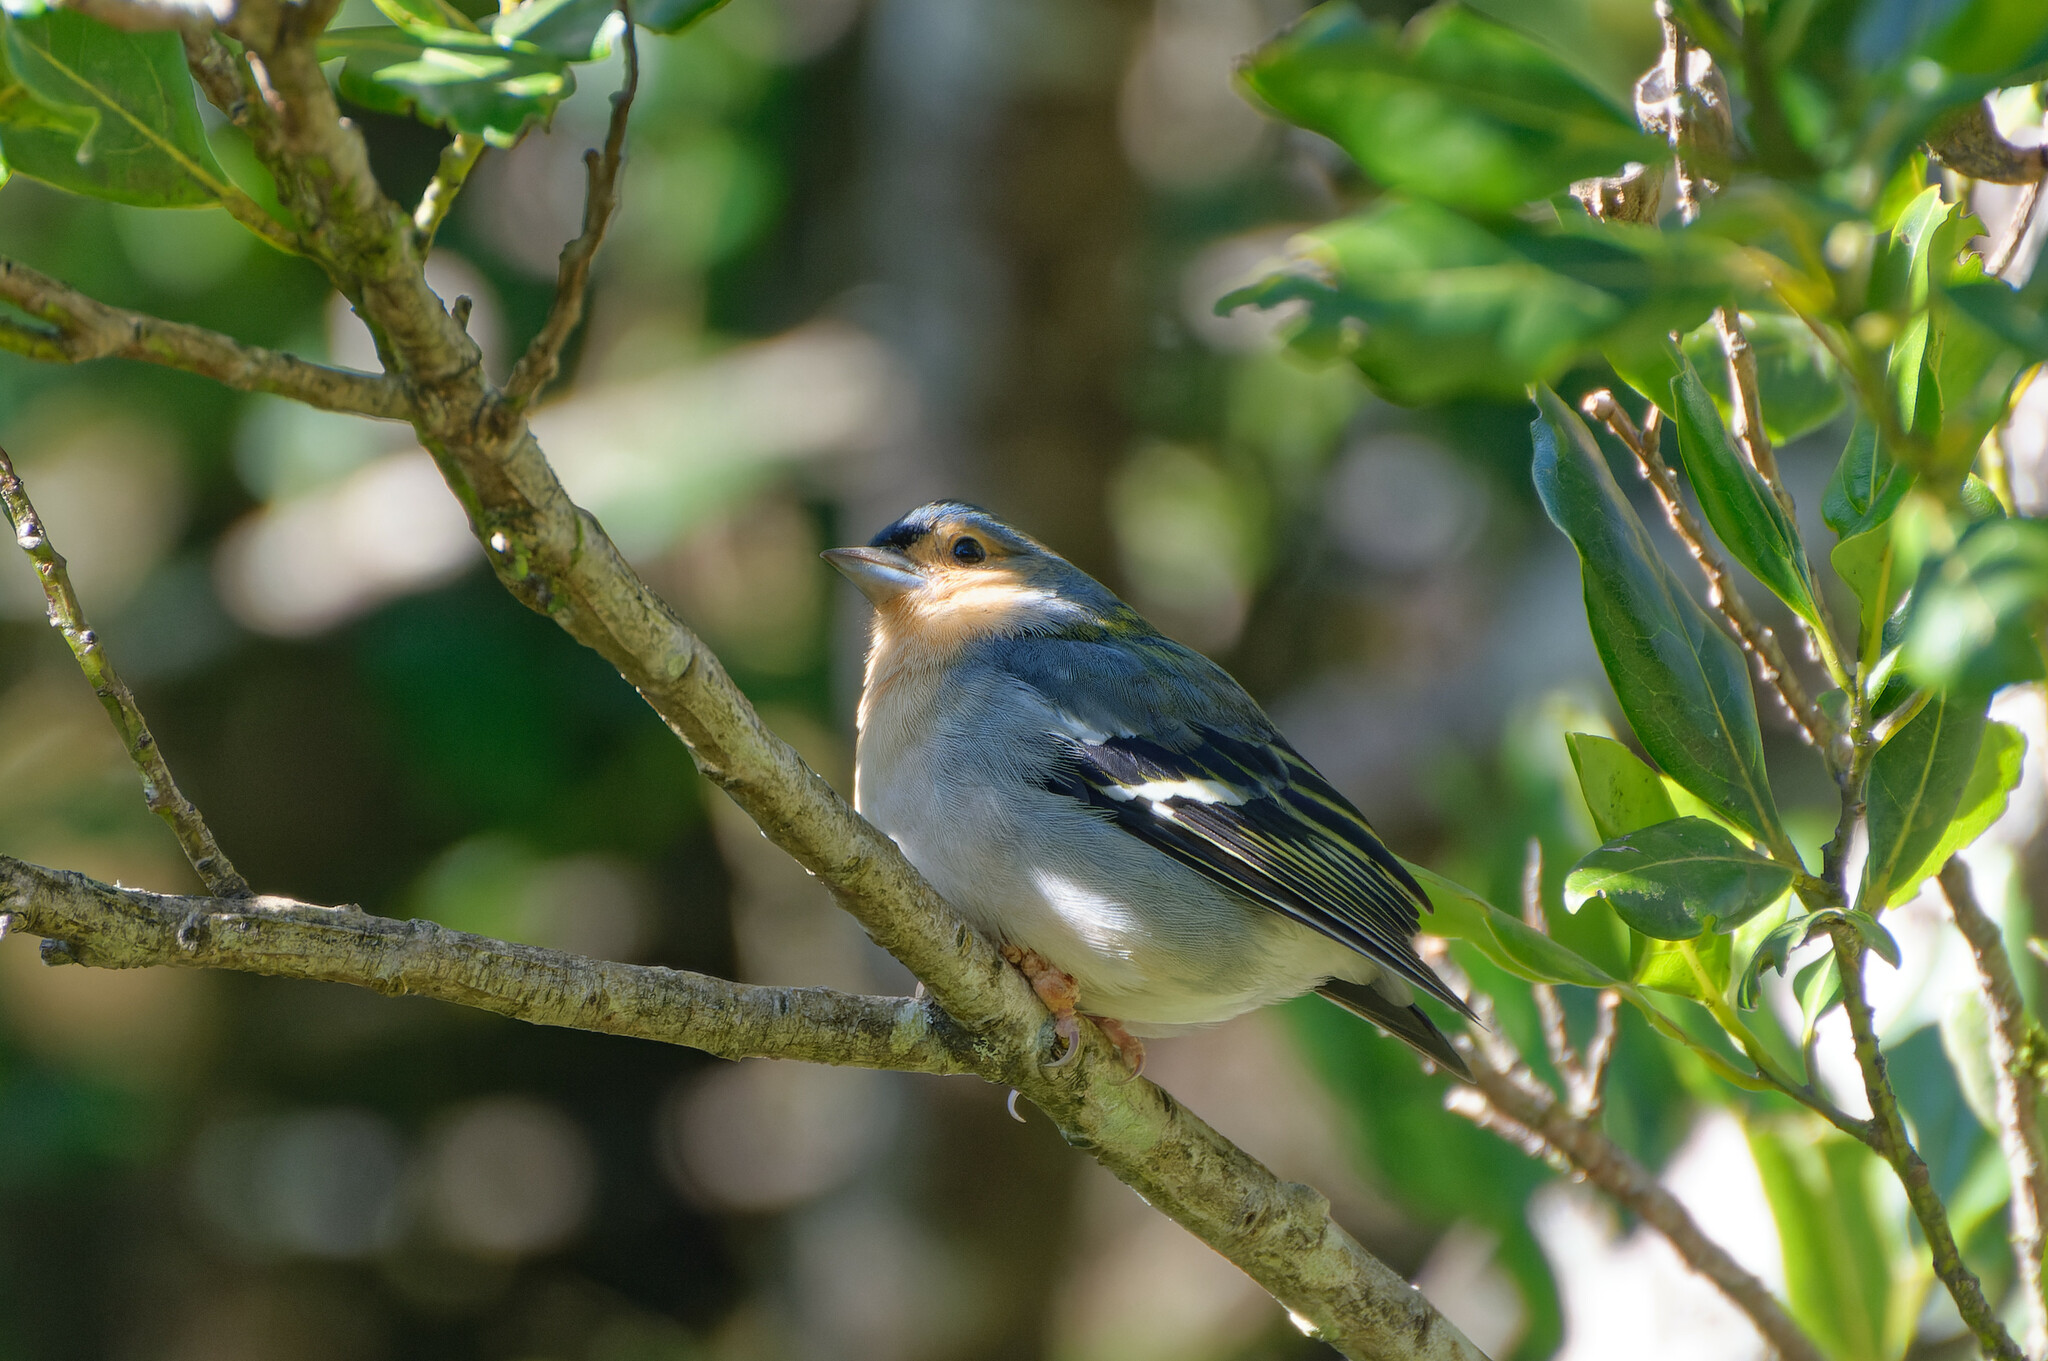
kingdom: Viruses
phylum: Cossaviricota
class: Papovaviricetes
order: Zurhausenvirales
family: Papillomaviridae
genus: Etapapillomavirus
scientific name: Etapapillomavirus
